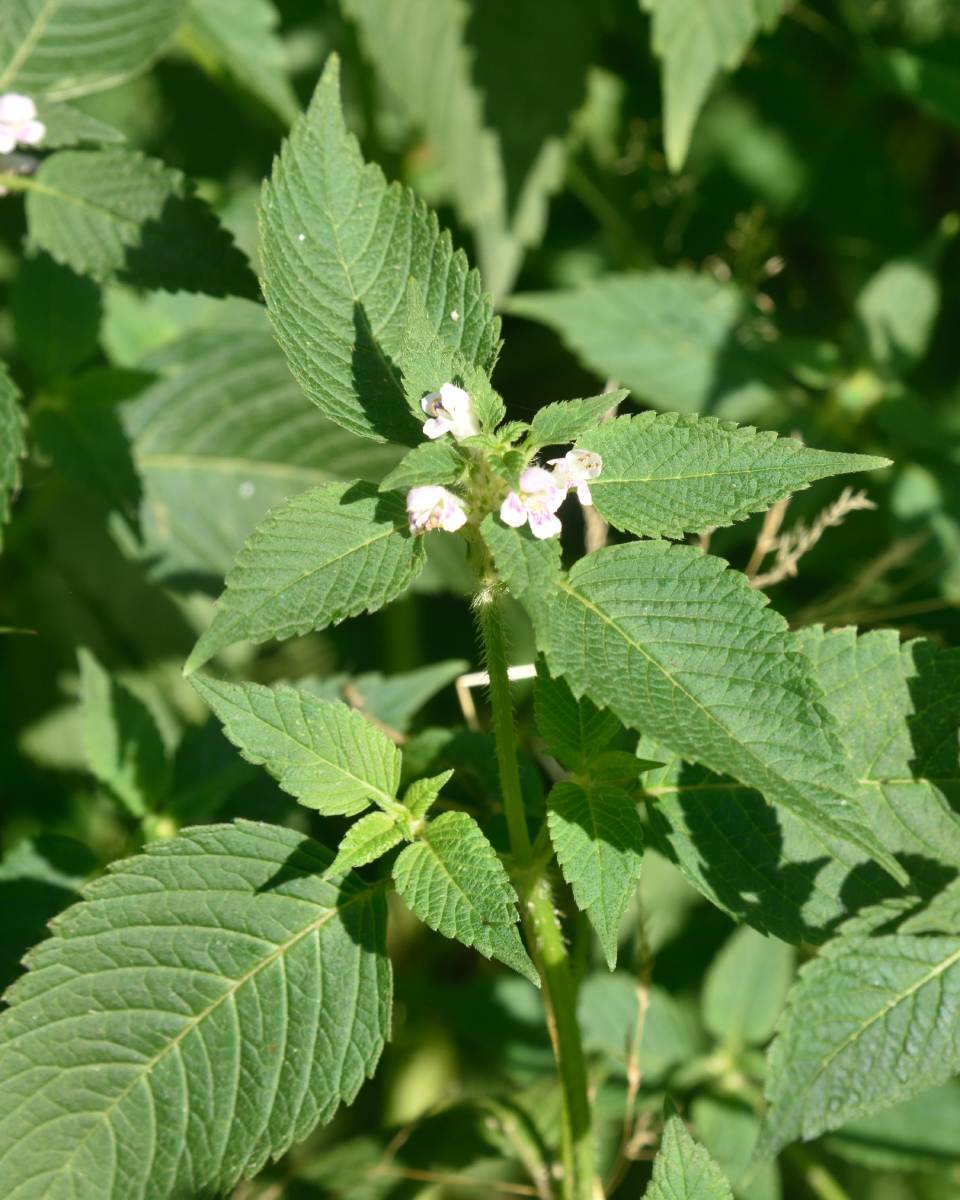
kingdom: Plantae
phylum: Tracheophyta
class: Magnoliopsida
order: Lamiales
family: Lamiaceae
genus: Galeopsis
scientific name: Galeopsis tetrahit
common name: Common hemp-nettle
